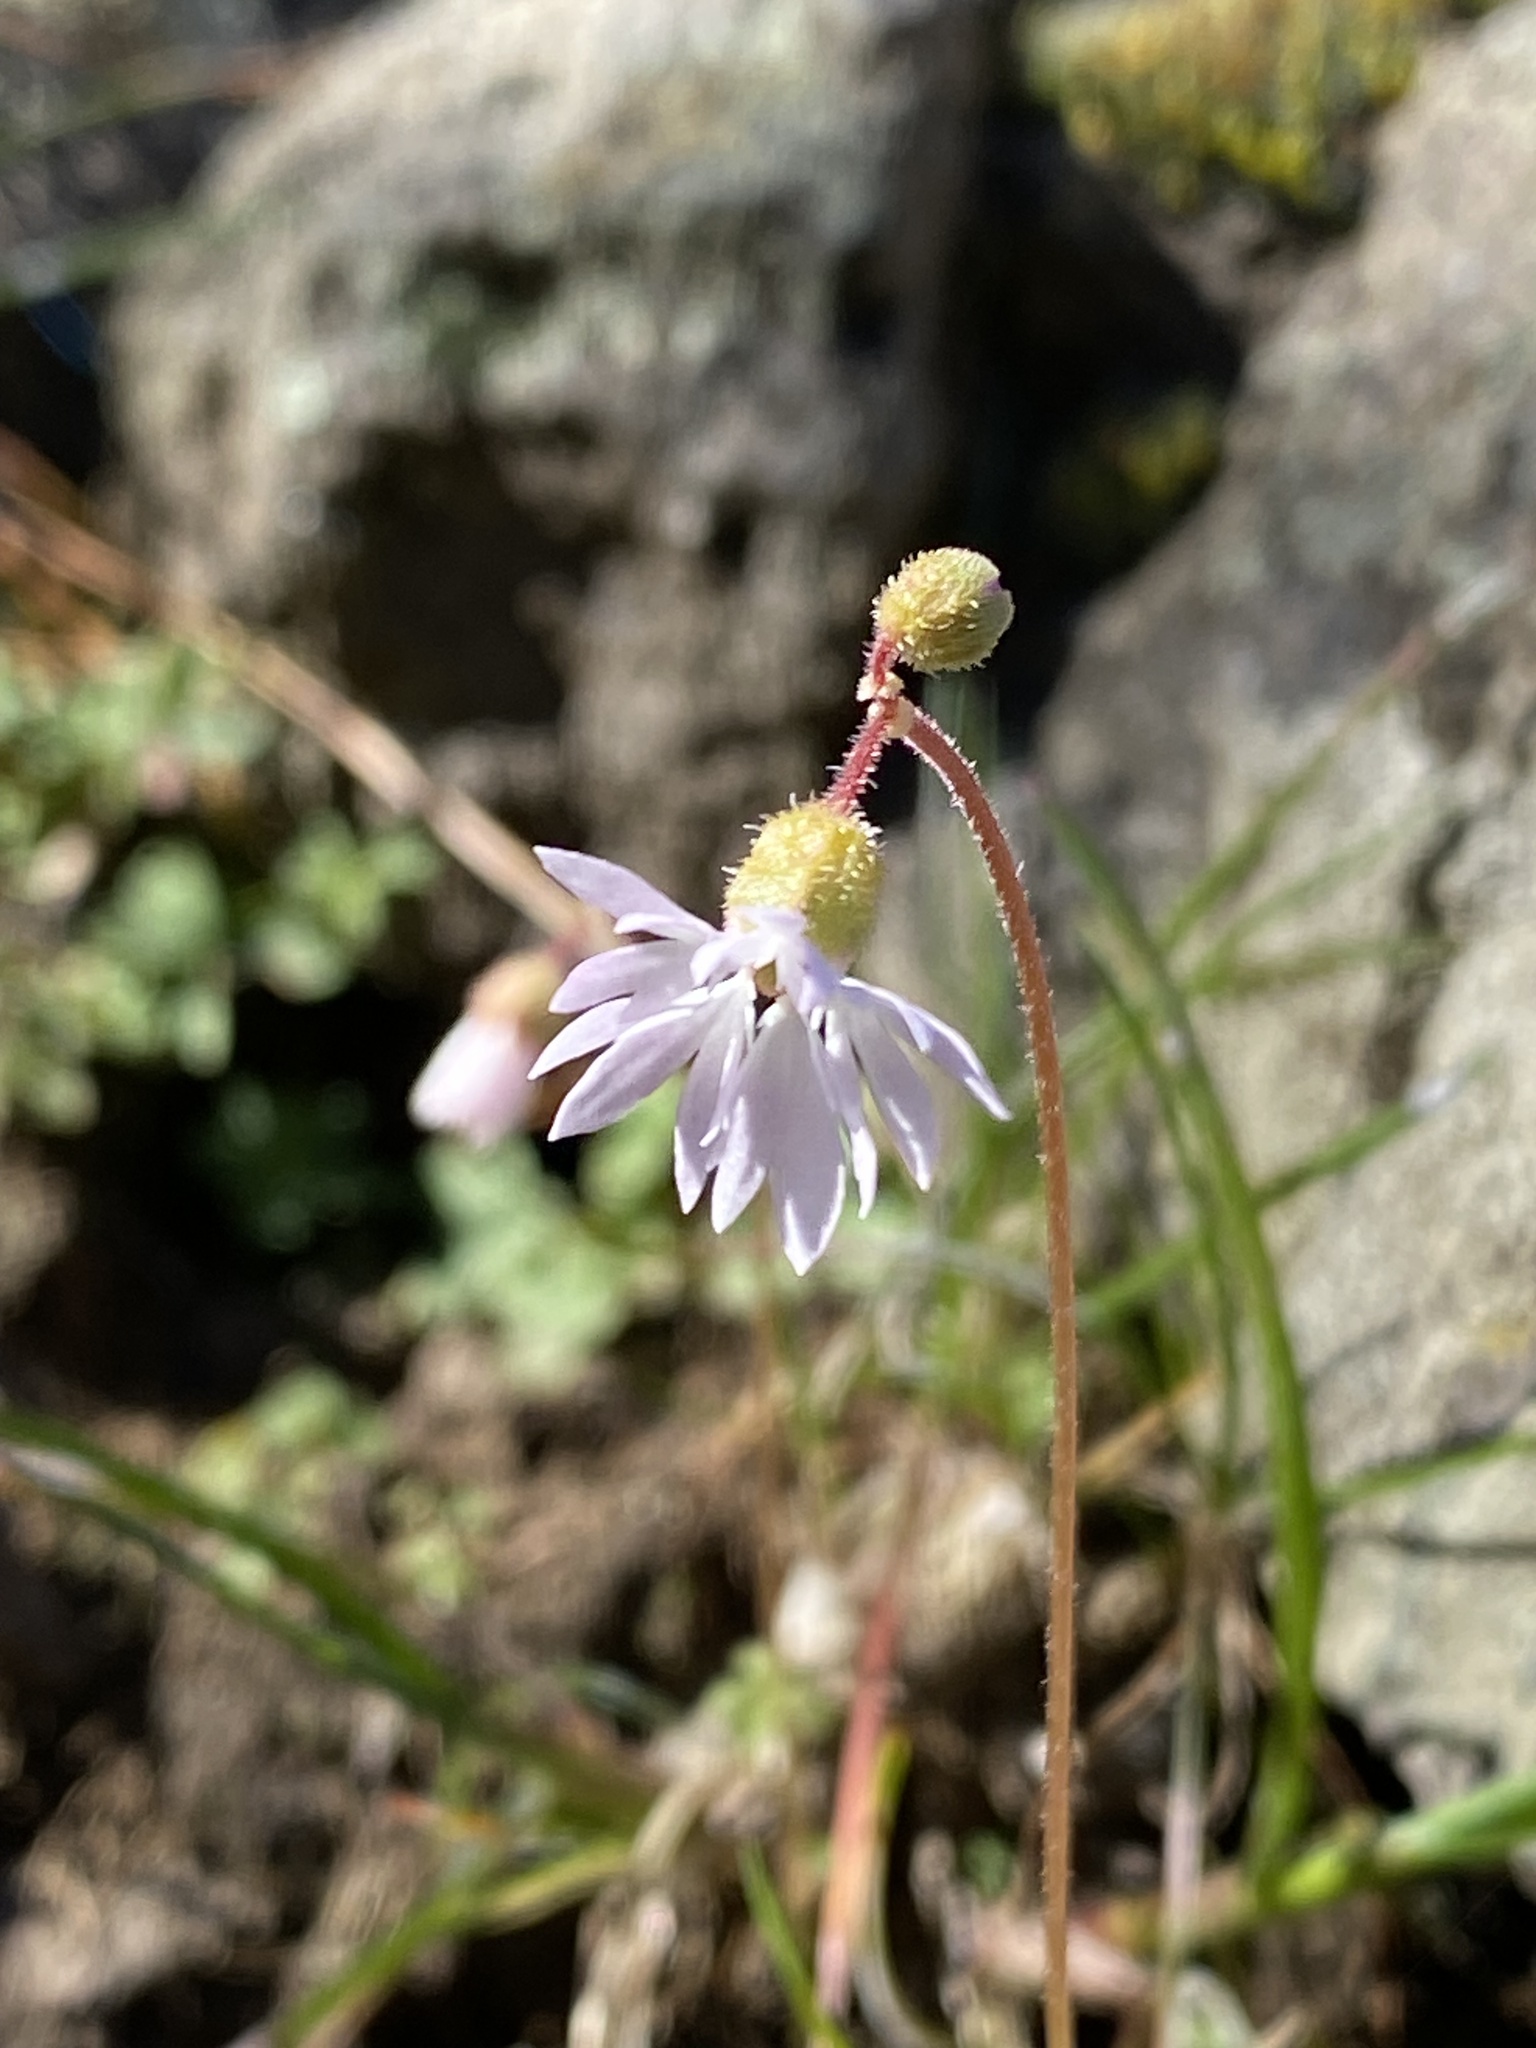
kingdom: Plantae
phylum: Tracheophyta
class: Magnoliopsida
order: Saxifragales
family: Saxifragaceae
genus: Lithophragma
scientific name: Lithophragma glabrum
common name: Bulbous prairie-star
